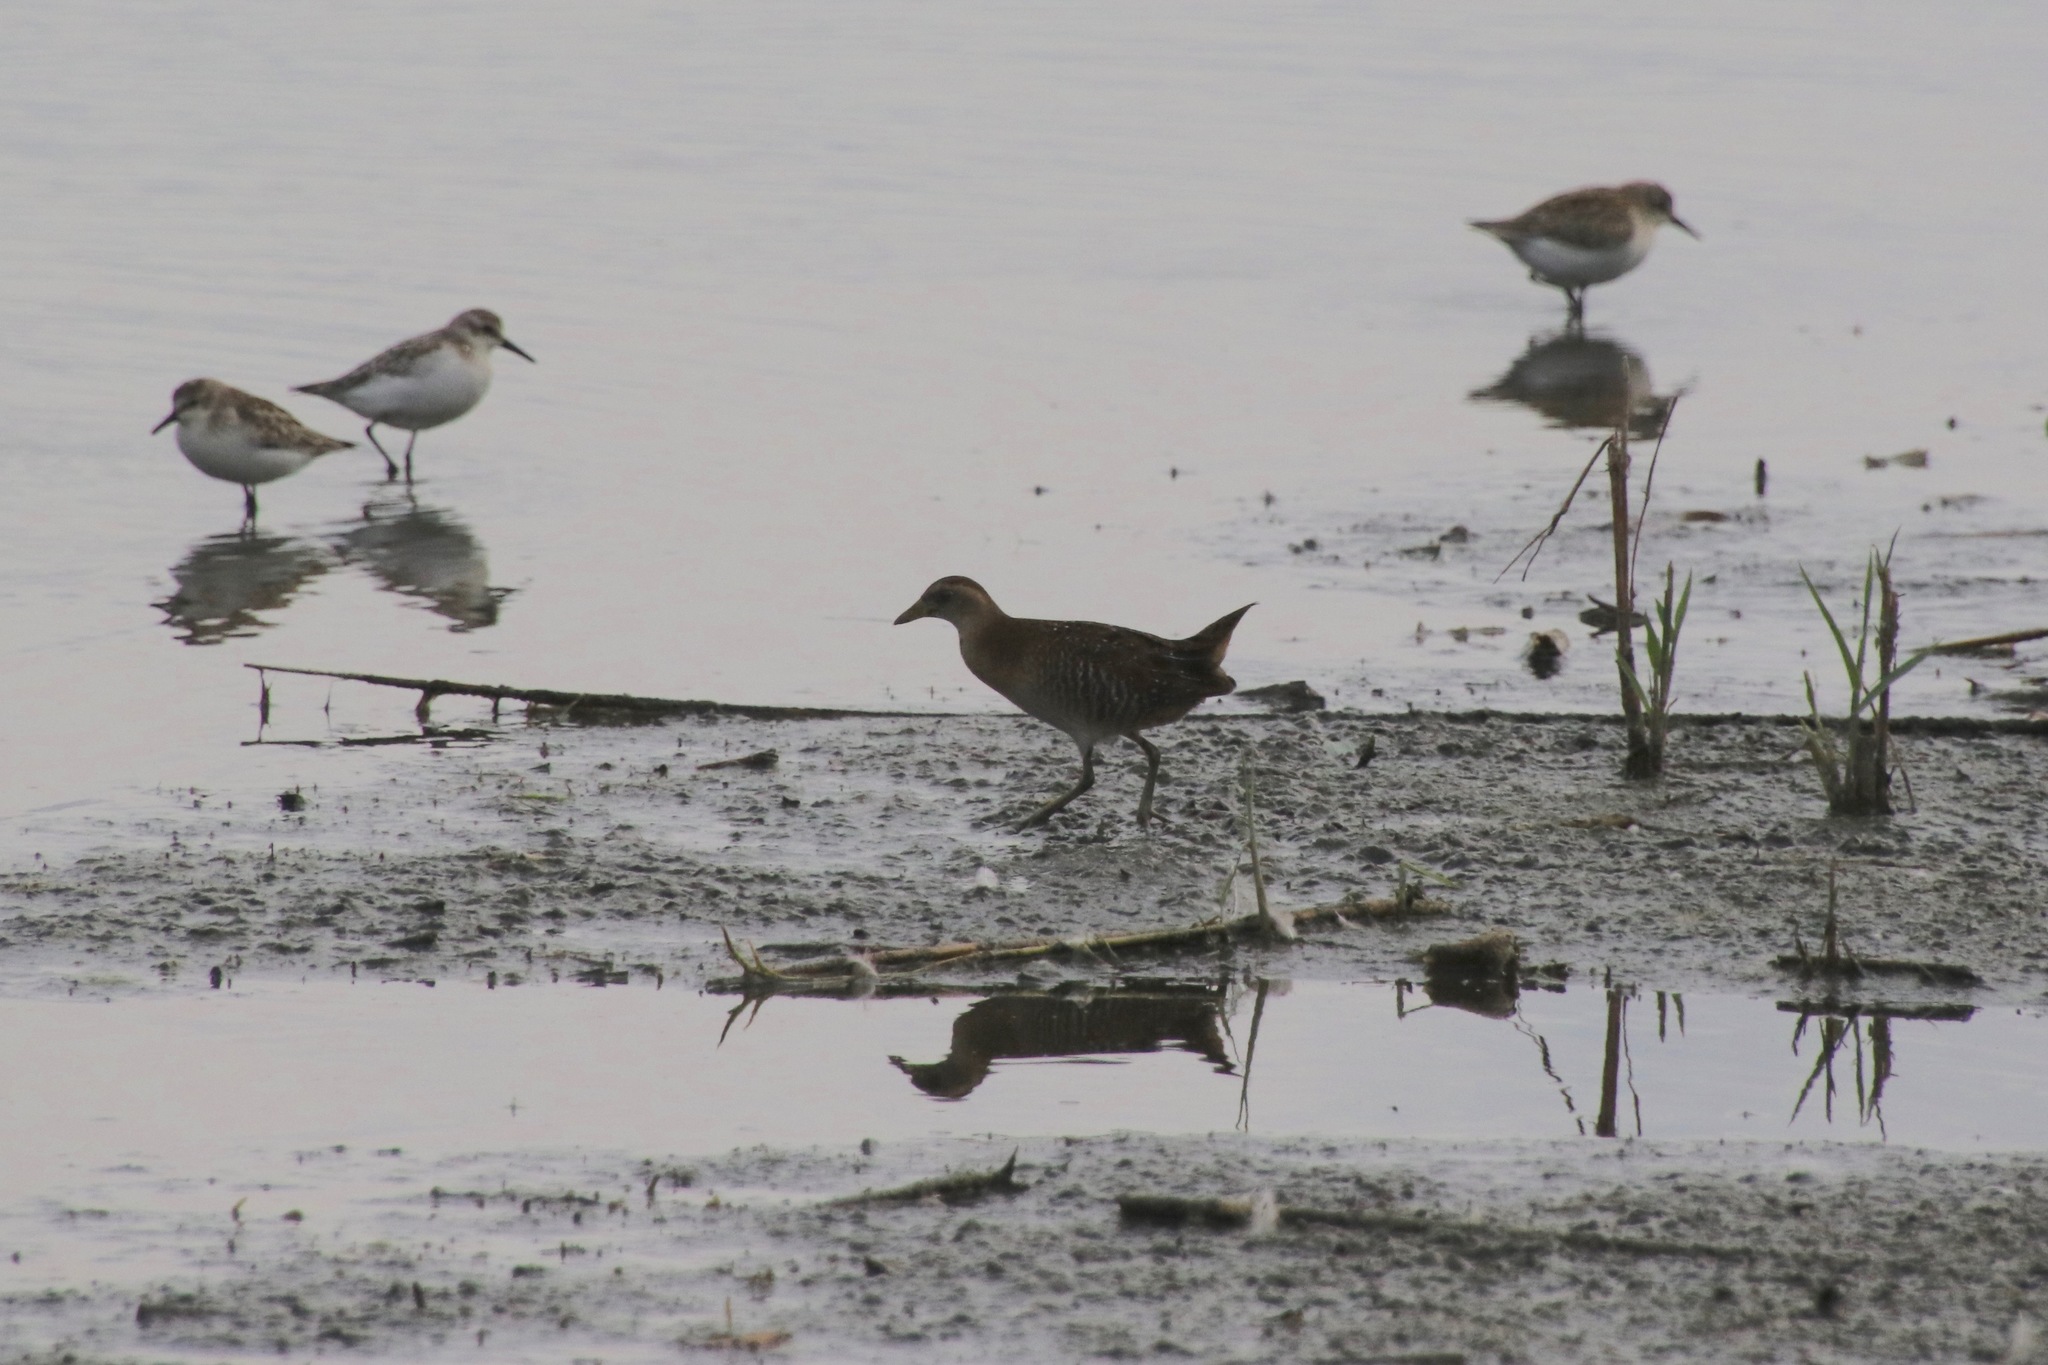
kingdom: Animalia
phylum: Chordata
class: Aves
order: Gruiformes
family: Rallidae
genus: Porzana
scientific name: Porzana carolina
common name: Sora
